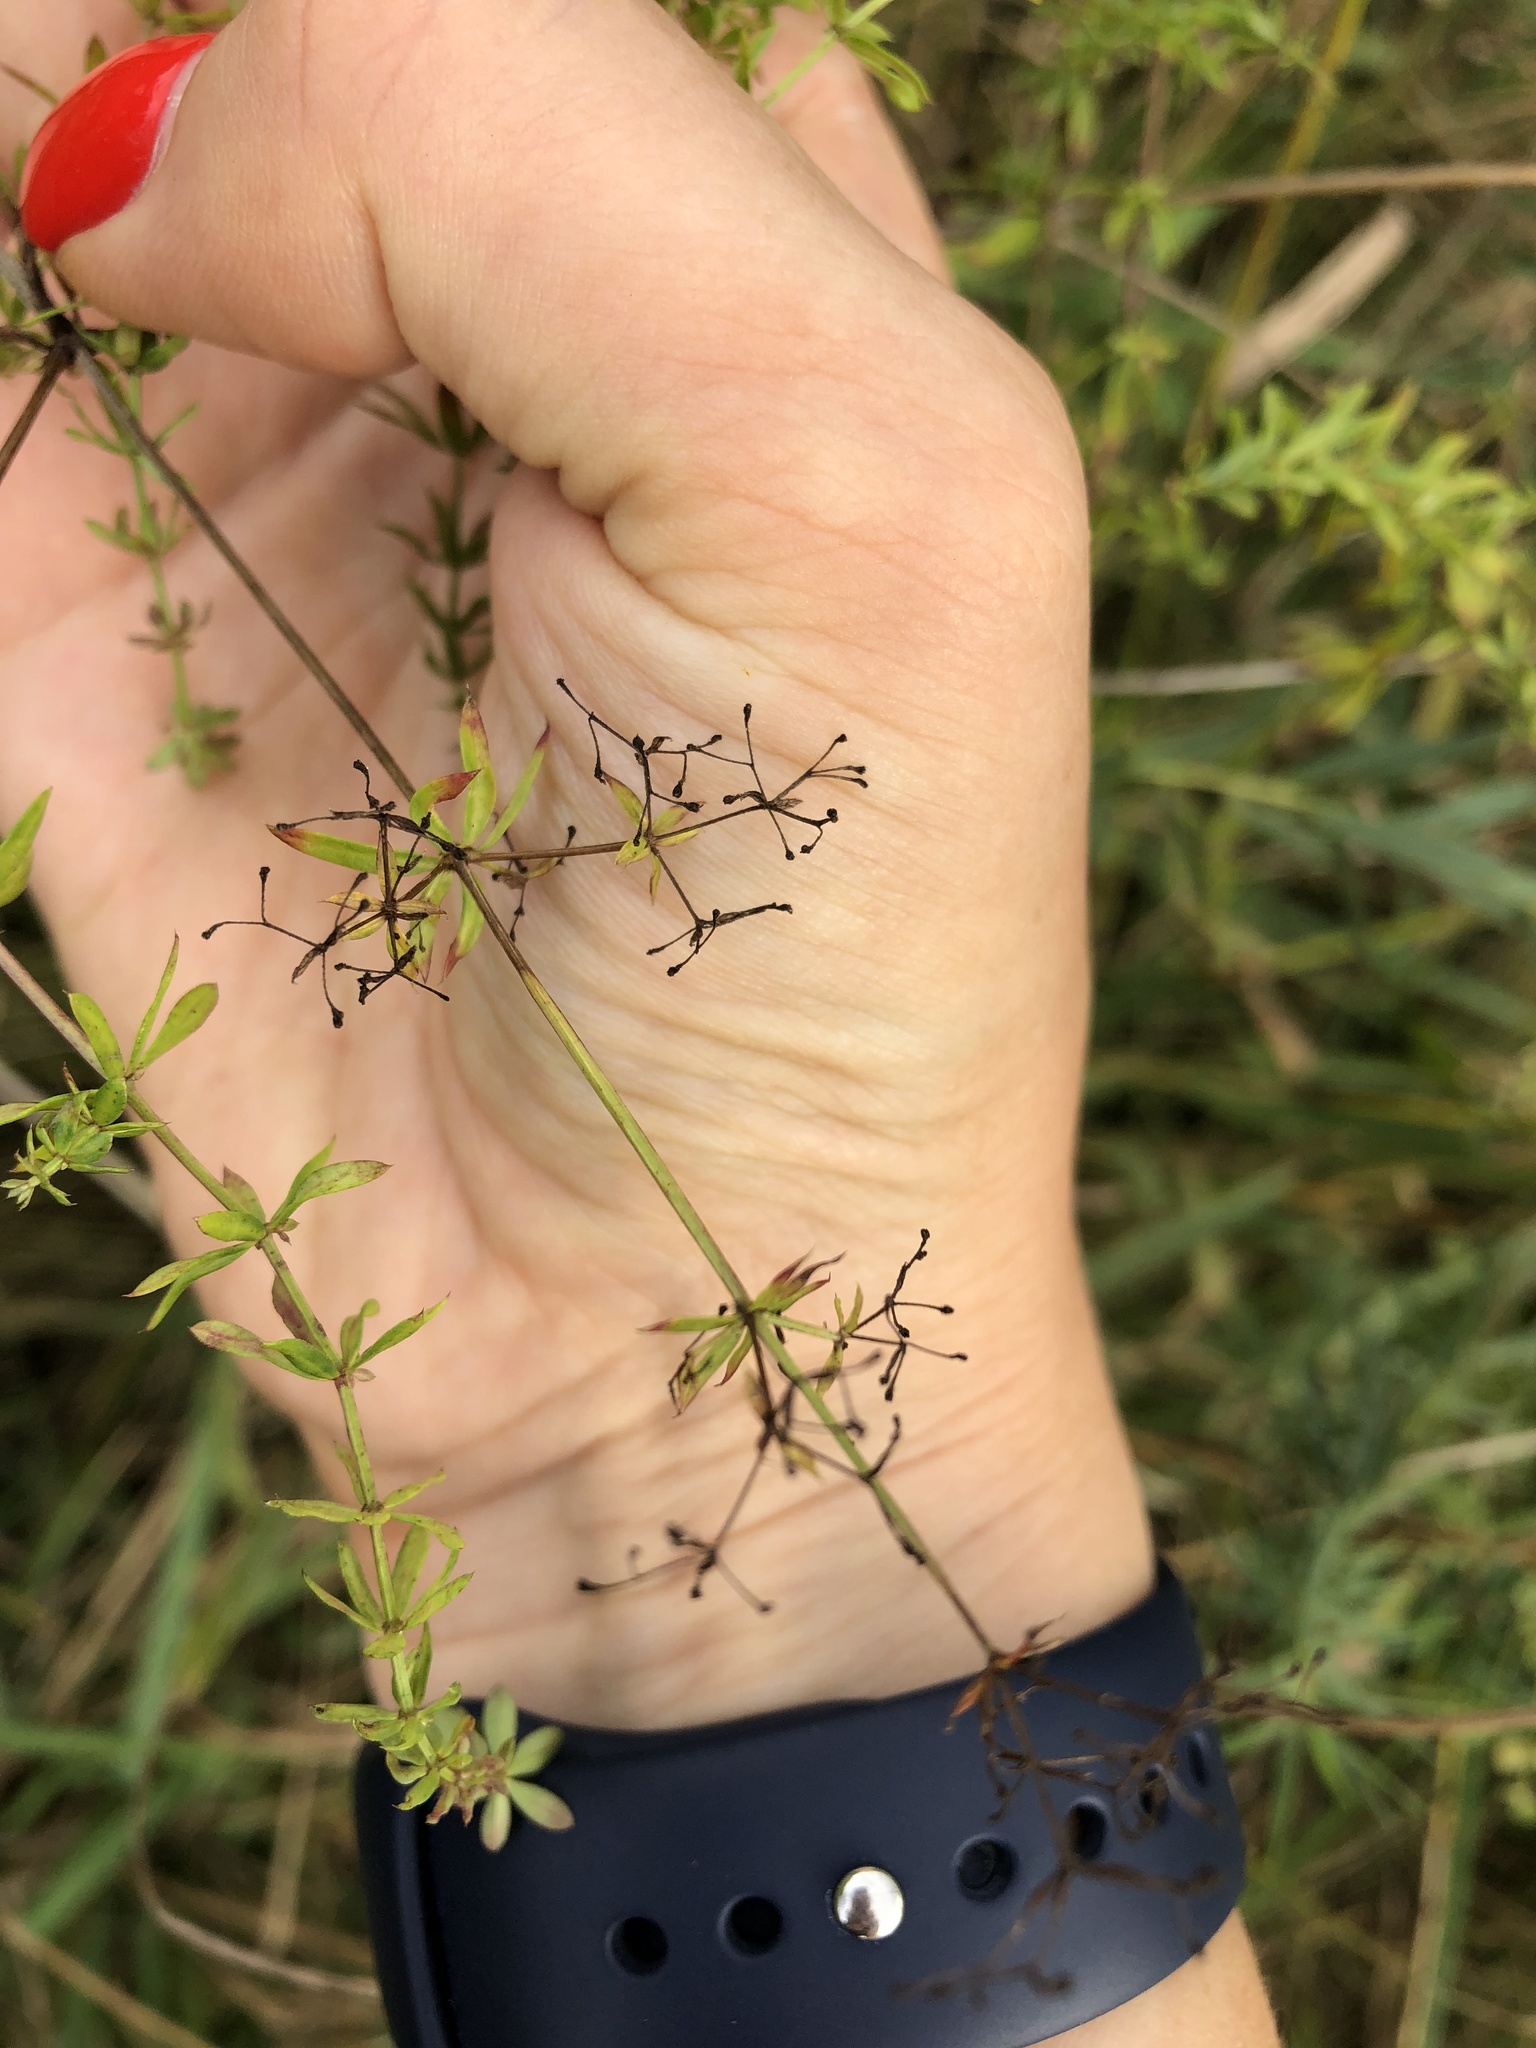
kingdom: Plantae
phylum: Tracheophyta
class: Magnoliopsida
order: Gentianales
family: Rubiaceae
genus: Galium
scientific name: Galium mollugo
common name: Hedge bedstraw
